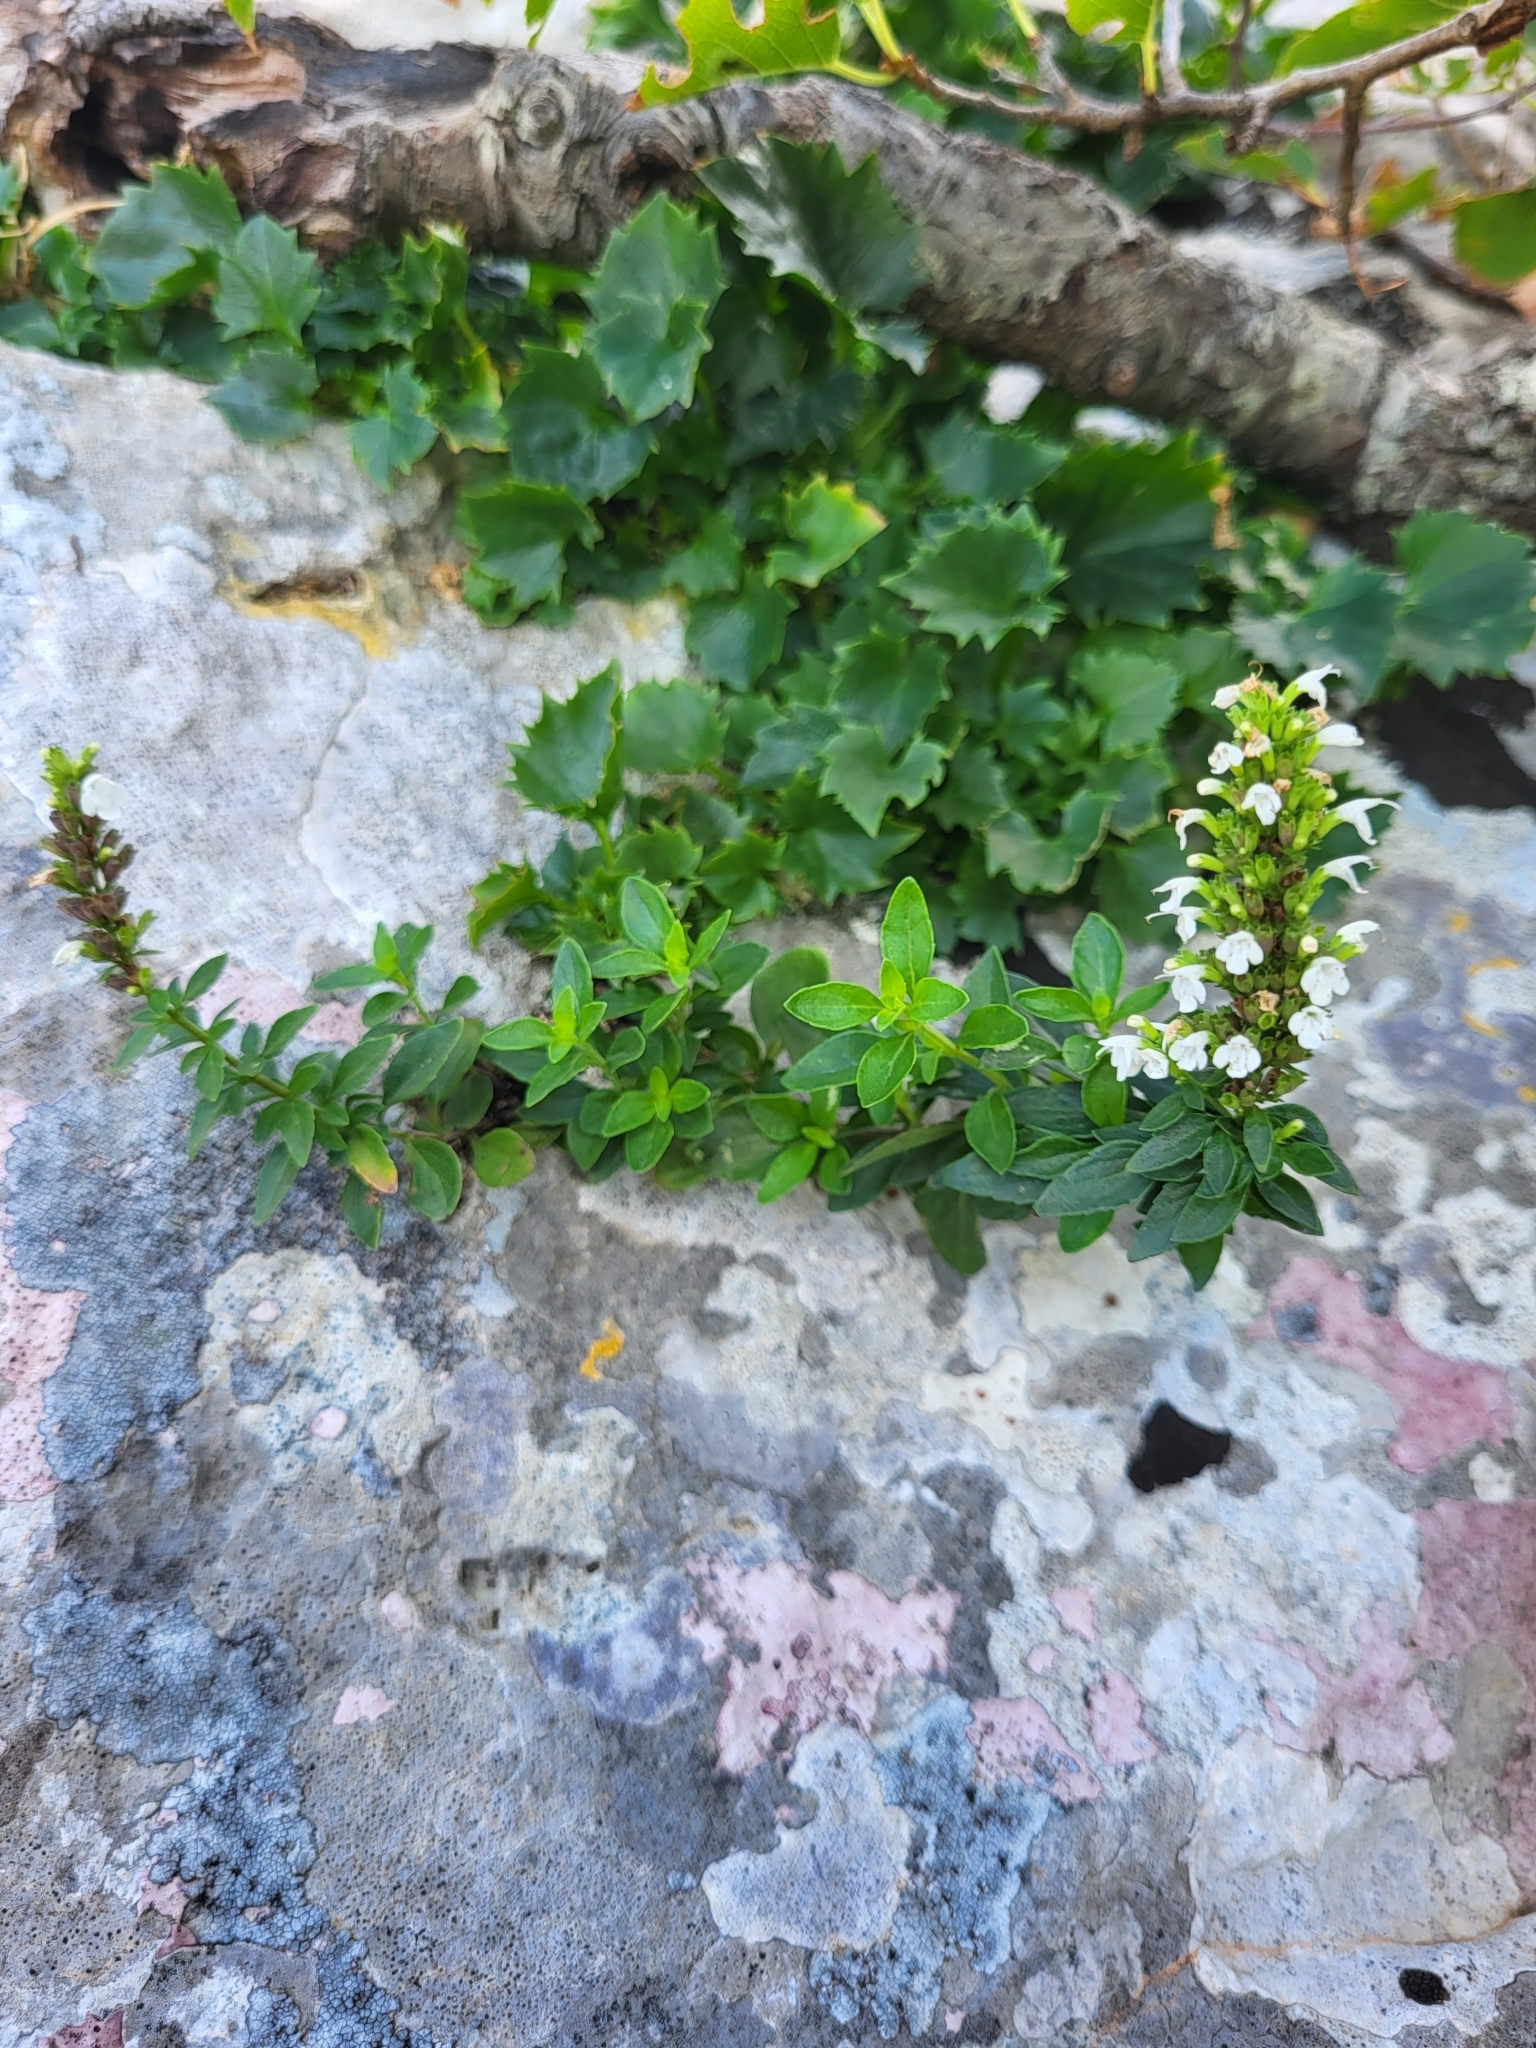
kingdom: Plantae
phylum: Tracheophyta
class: Magnoliopsida
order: Lamiales
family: Lamiaceae
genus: Clinopodium
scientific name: Clinopodium album
